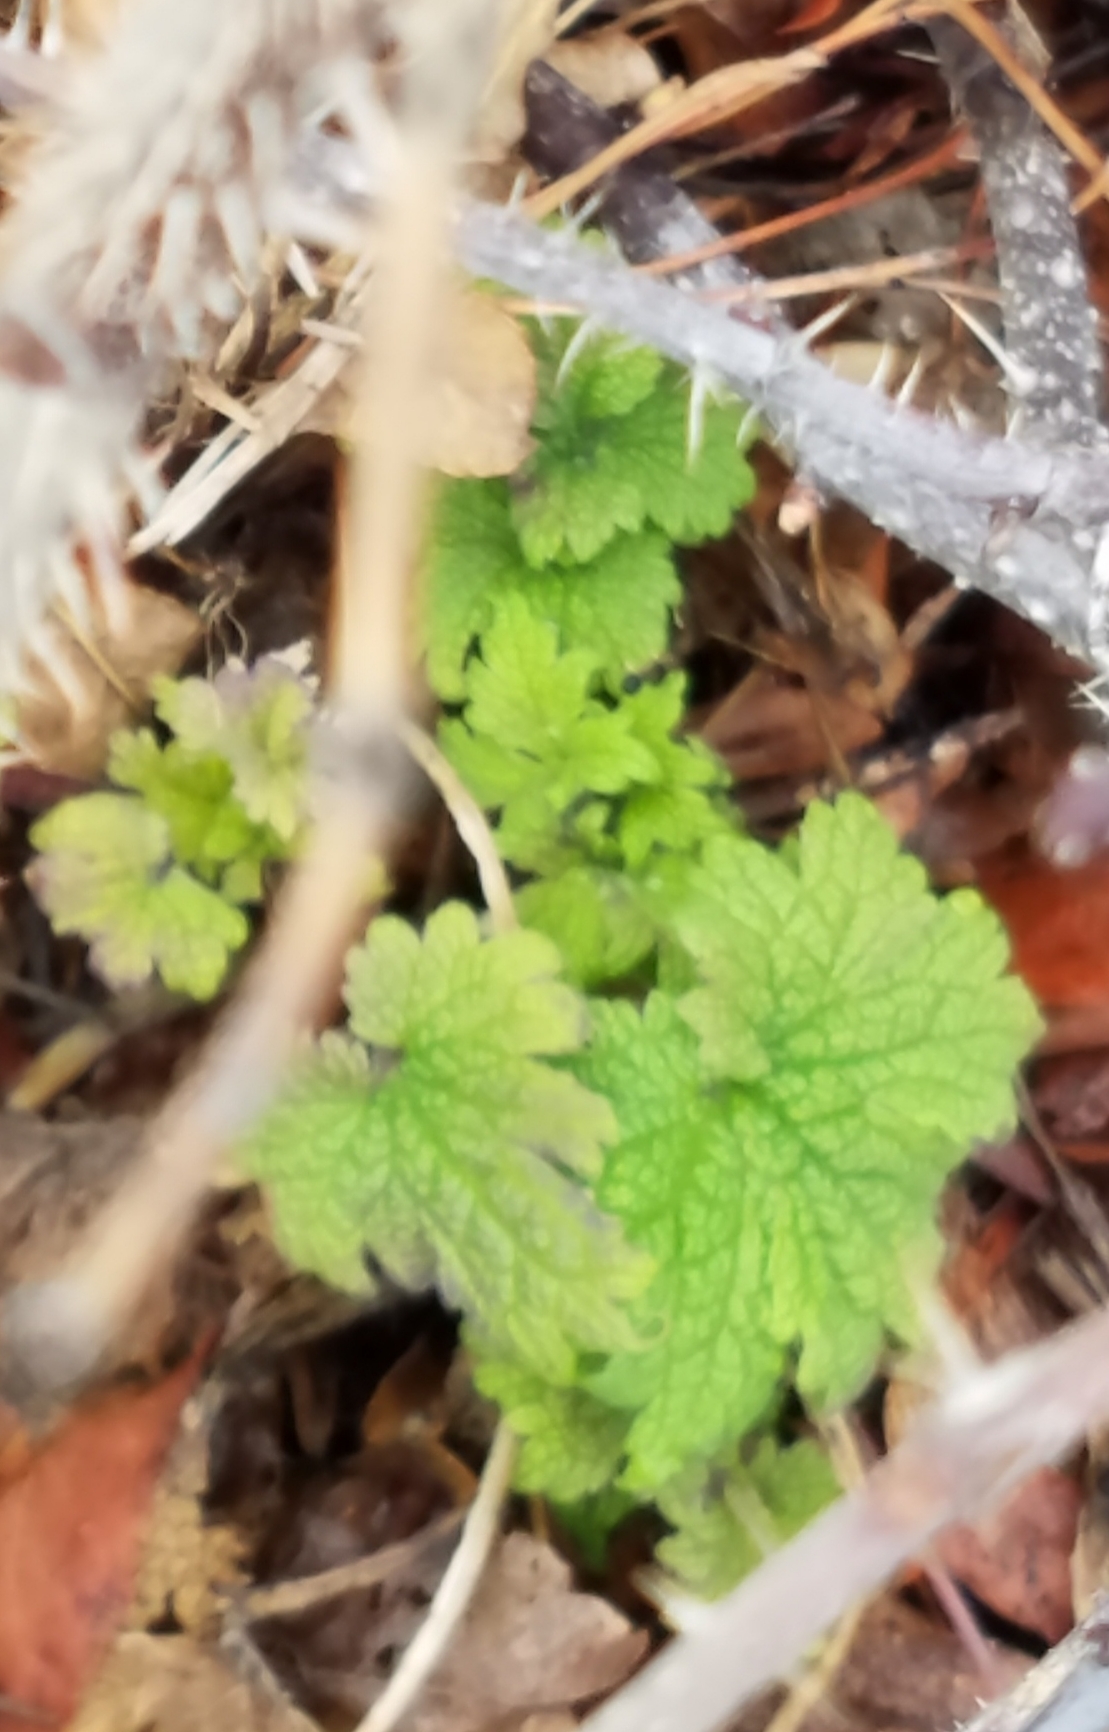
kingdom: Plantae
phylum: Tracheophyta
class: Magnoliopsida
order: Lamiales
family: Lamiaceae
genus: Leonurus
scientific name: Leonurus cardiaca
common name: Motherwort
